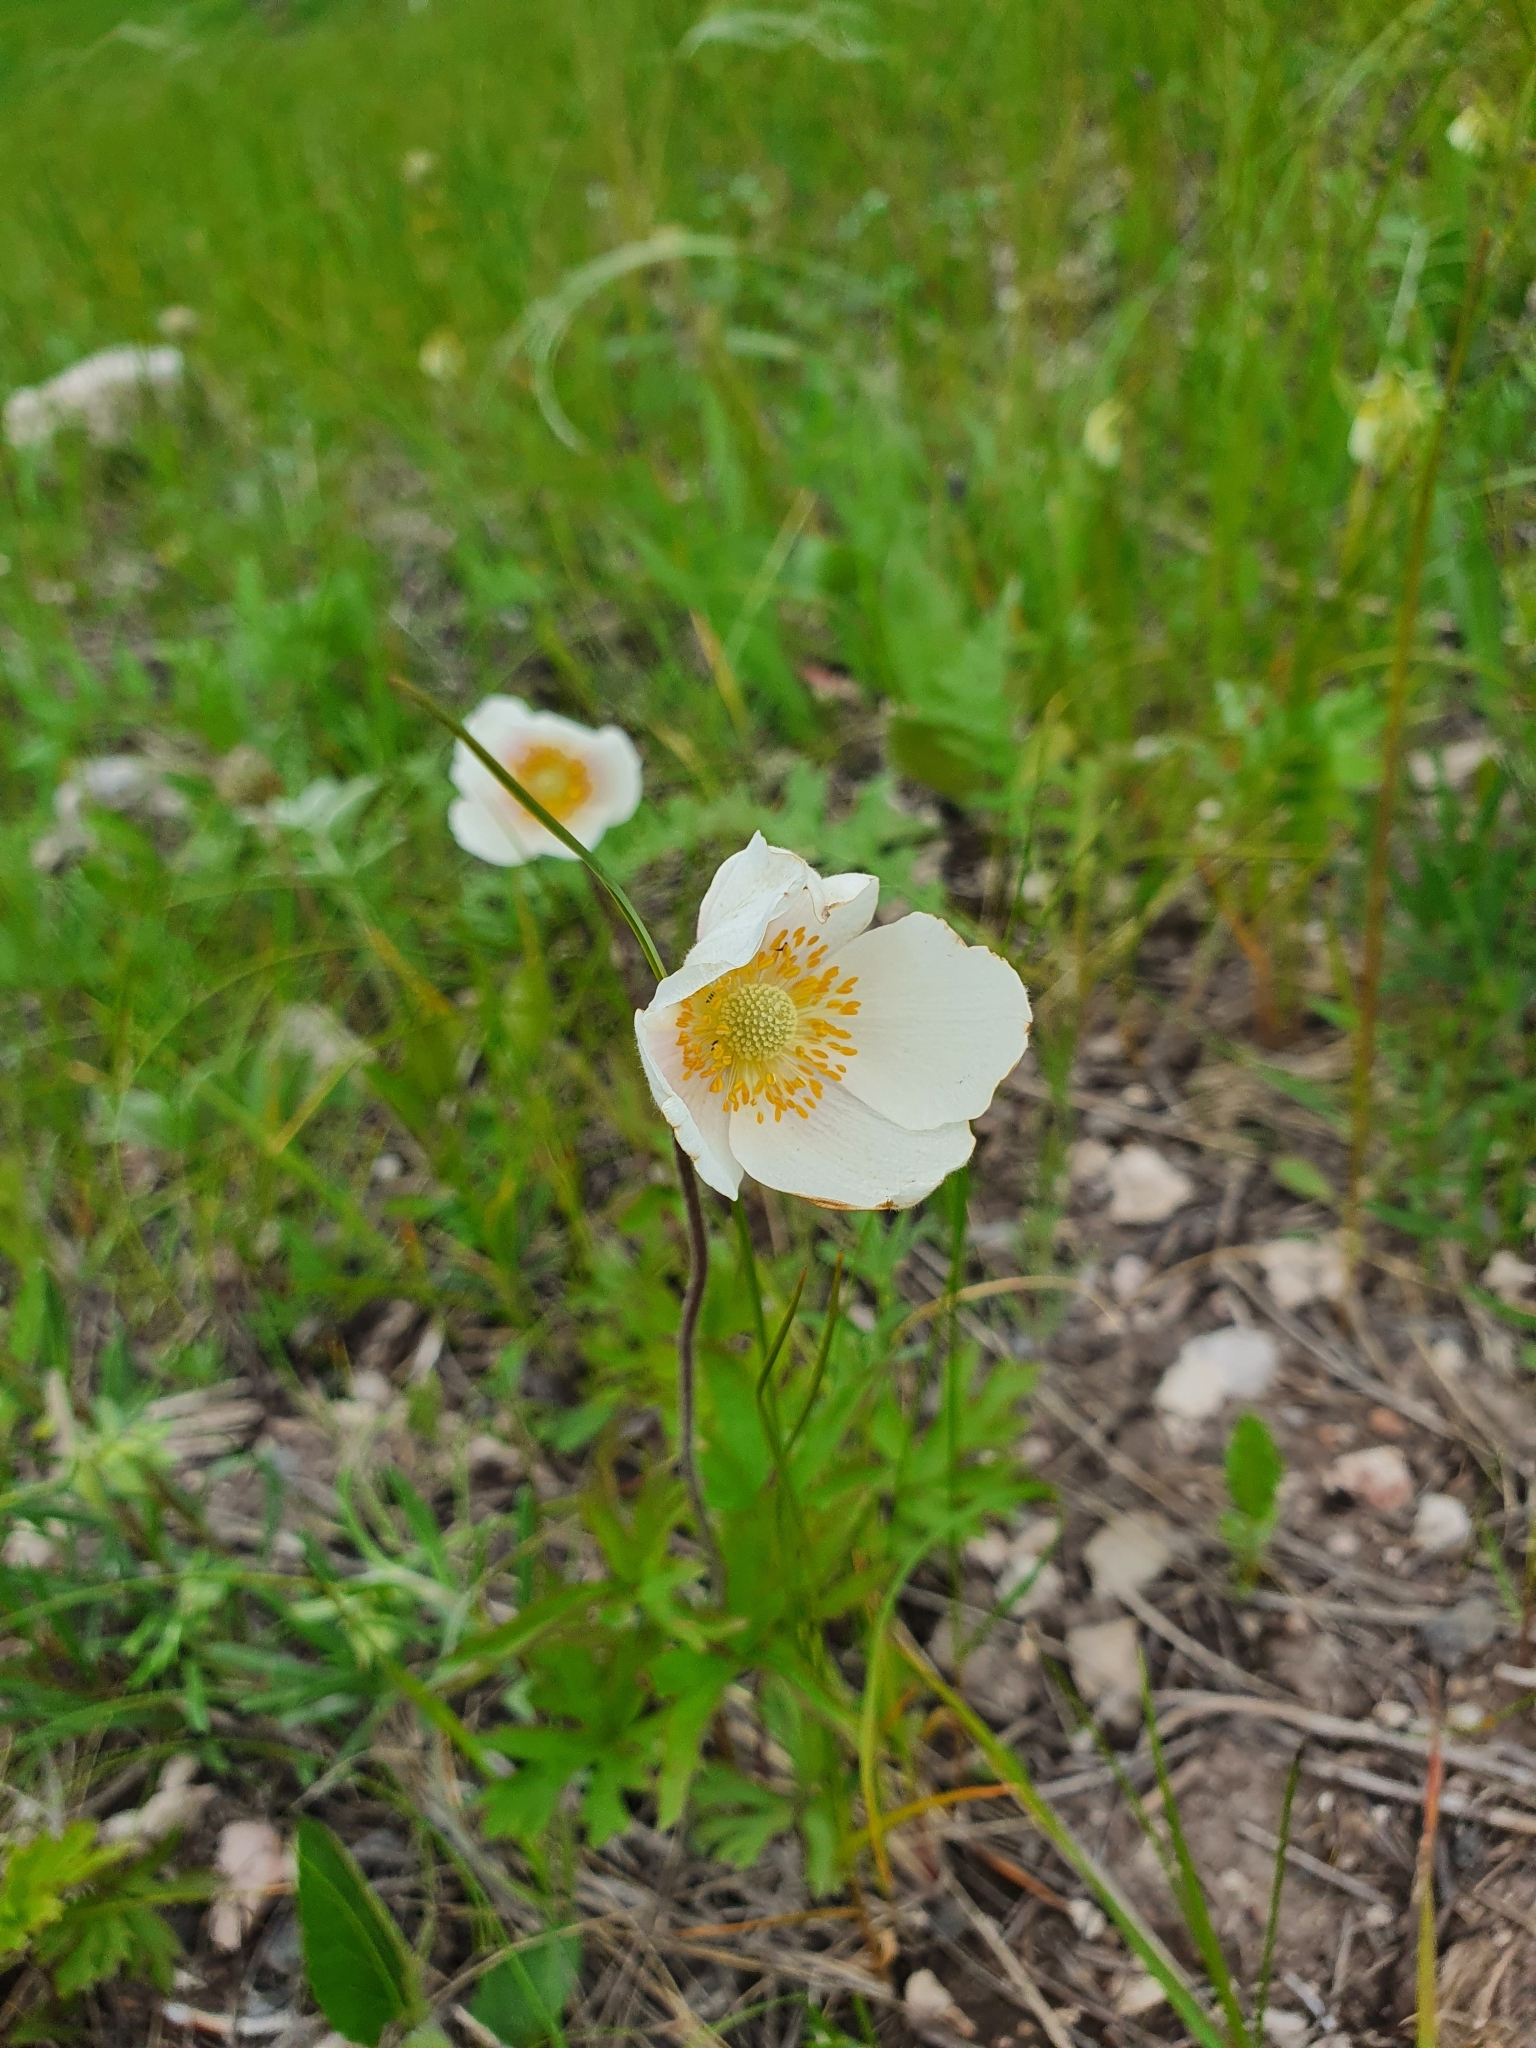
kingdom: Plantae
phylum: Tracheophyta
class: Magnoliopsida
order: Ranunculales
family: Ranunculaceae
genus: Anemone
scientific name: Anemone sylvestris
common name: Snowdrop anemone
